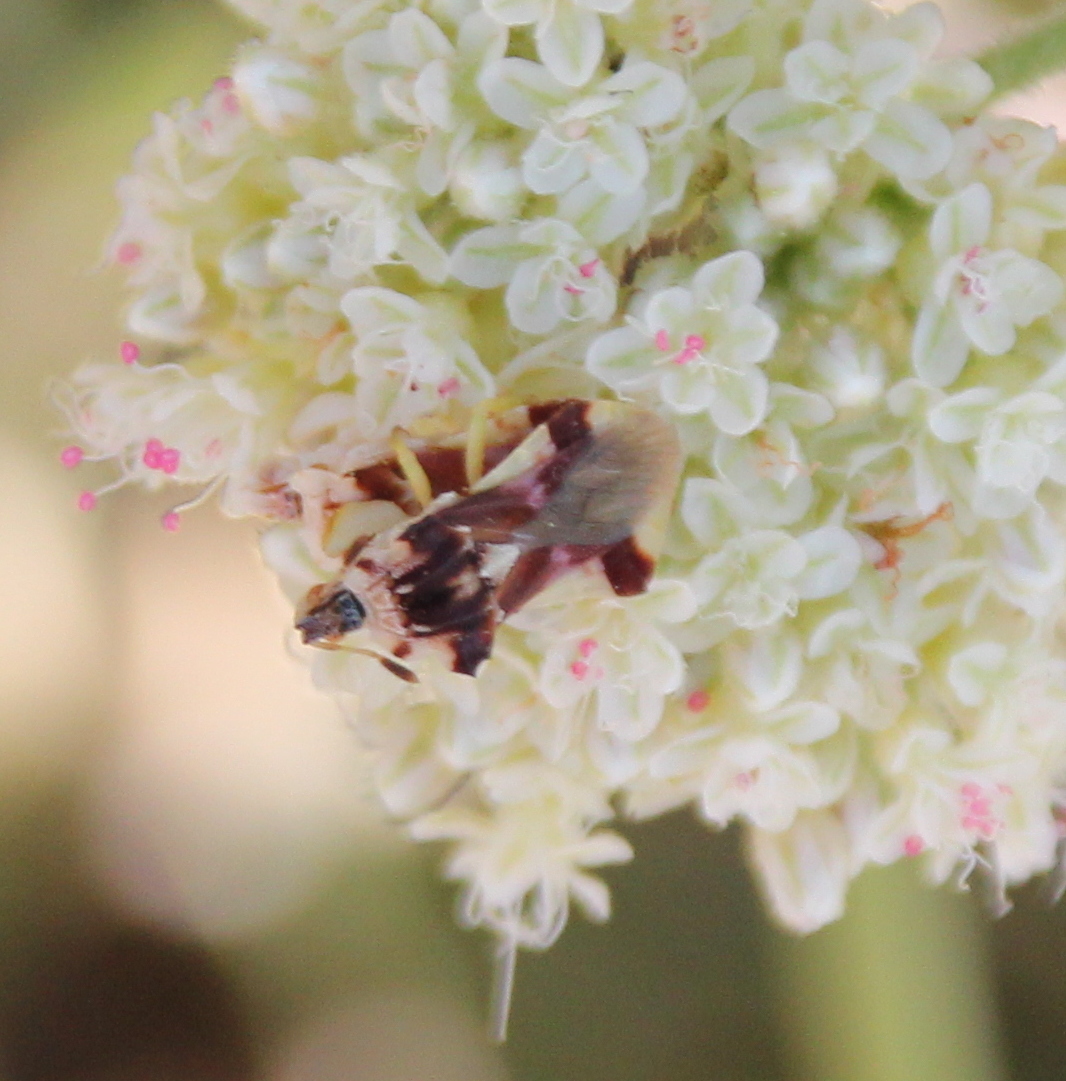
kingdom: Animalia
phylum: Arthropoda
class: Insecta
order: Hemiptera
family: Reduviidae
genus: Phymata
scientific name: Phymata pacifica
